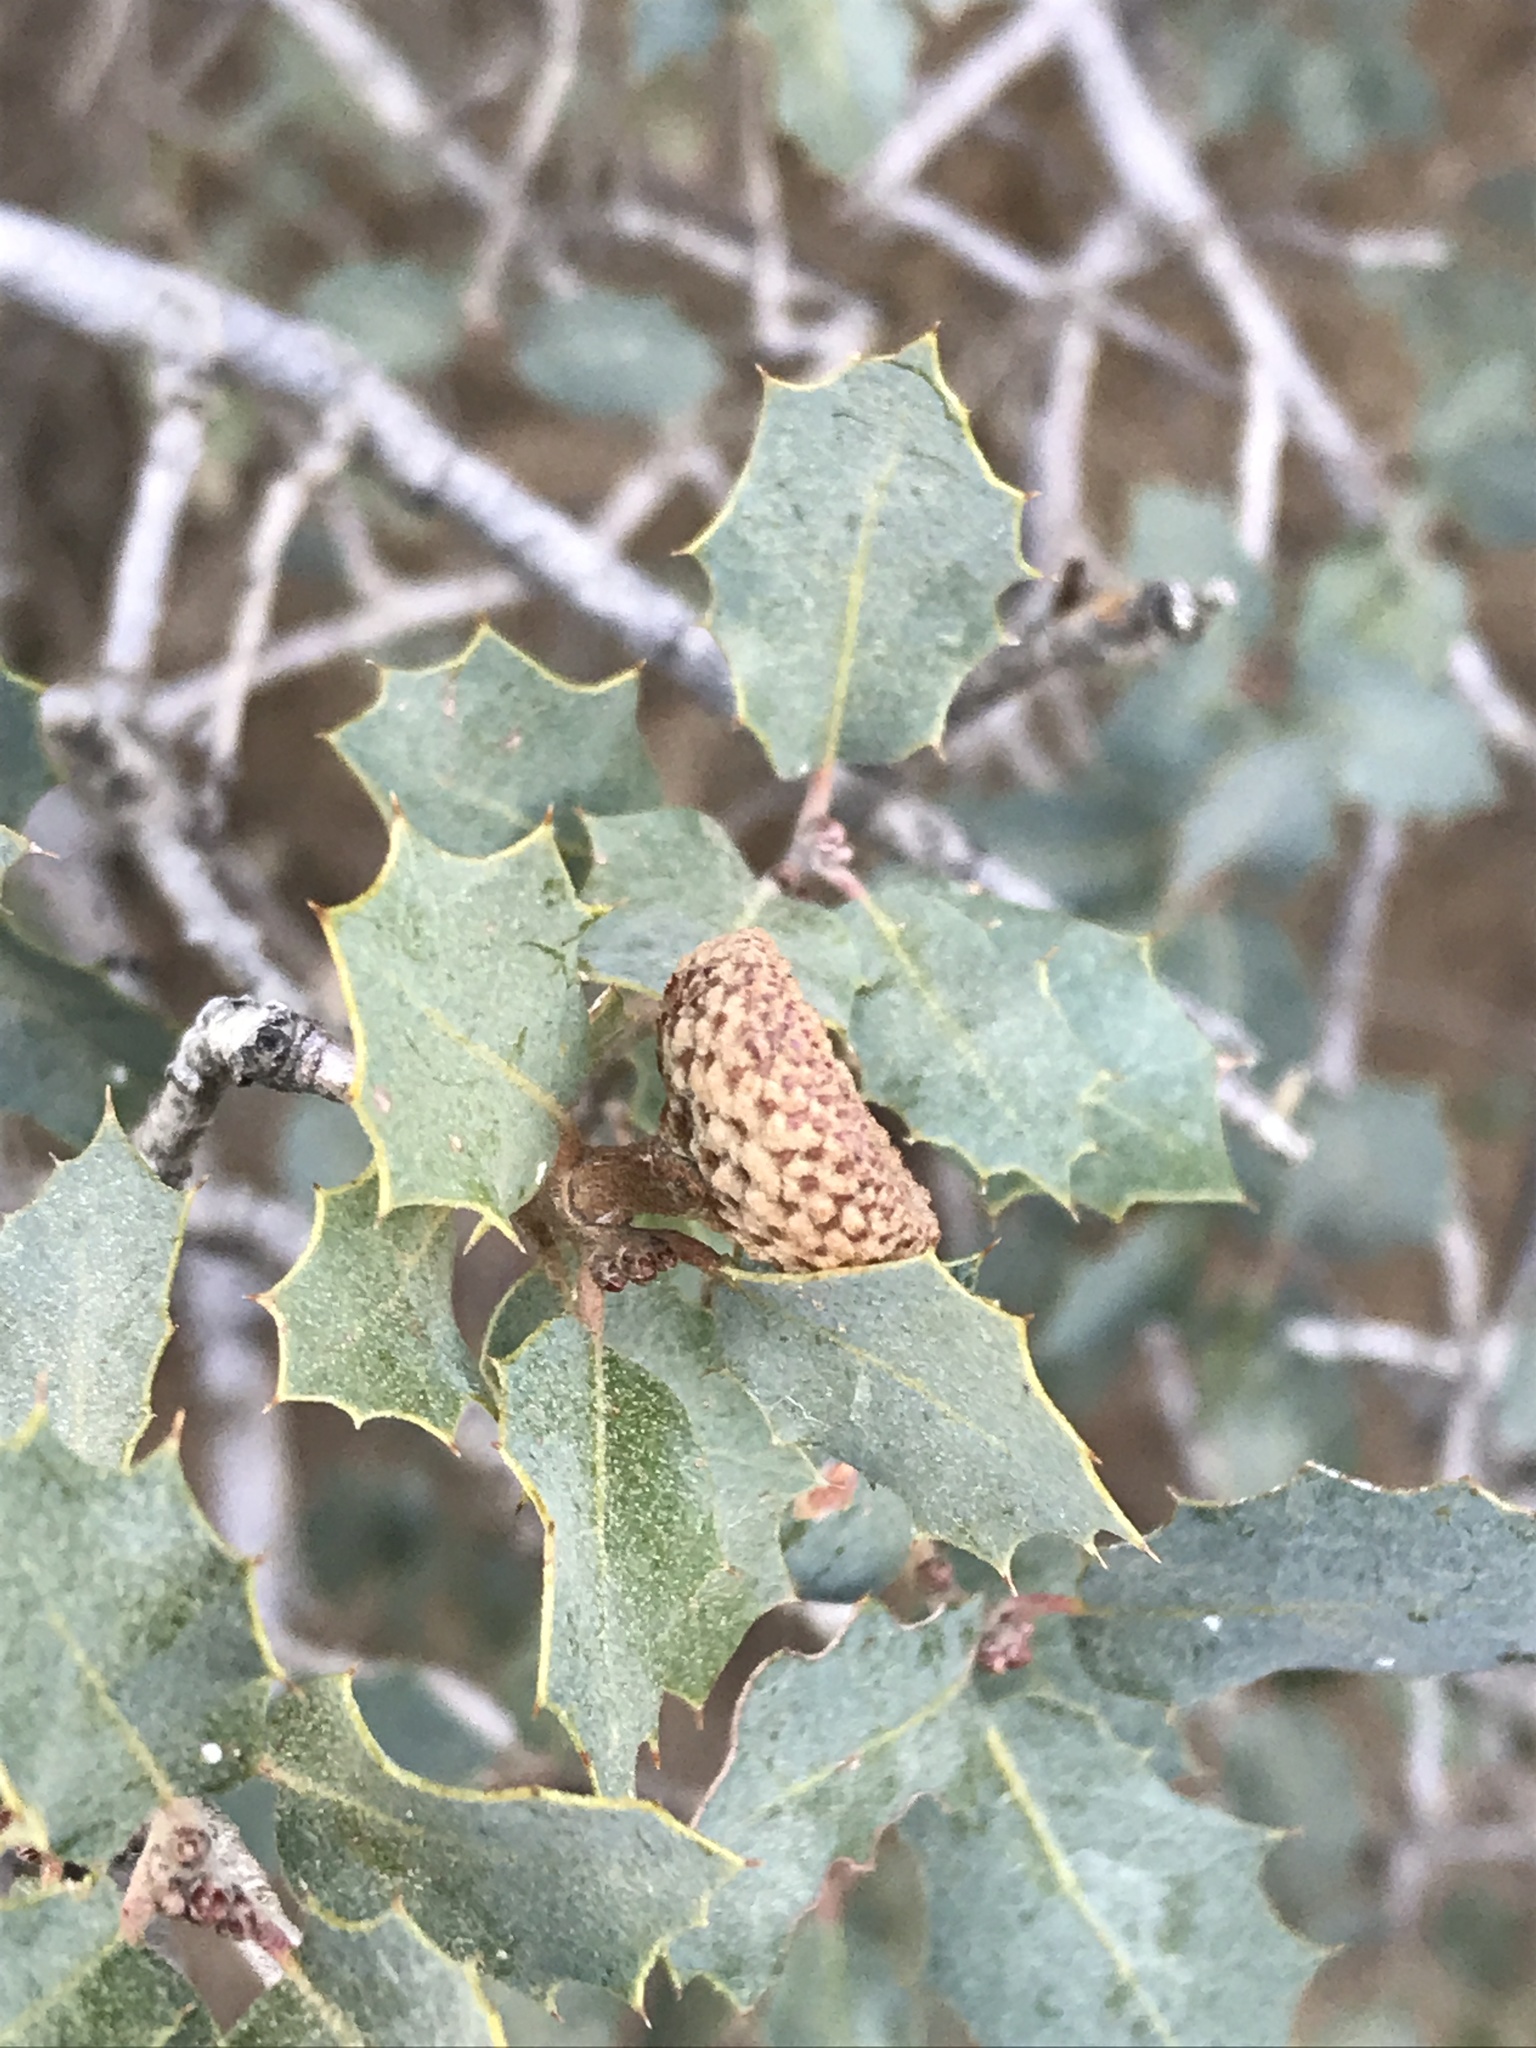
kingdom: Plantae
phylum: Tracheophyta
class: Magnoliopsida
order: Fagales
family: Fagaceae
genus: Quercus
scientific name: Quercus turbinella
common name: Sonoran scrub oak
